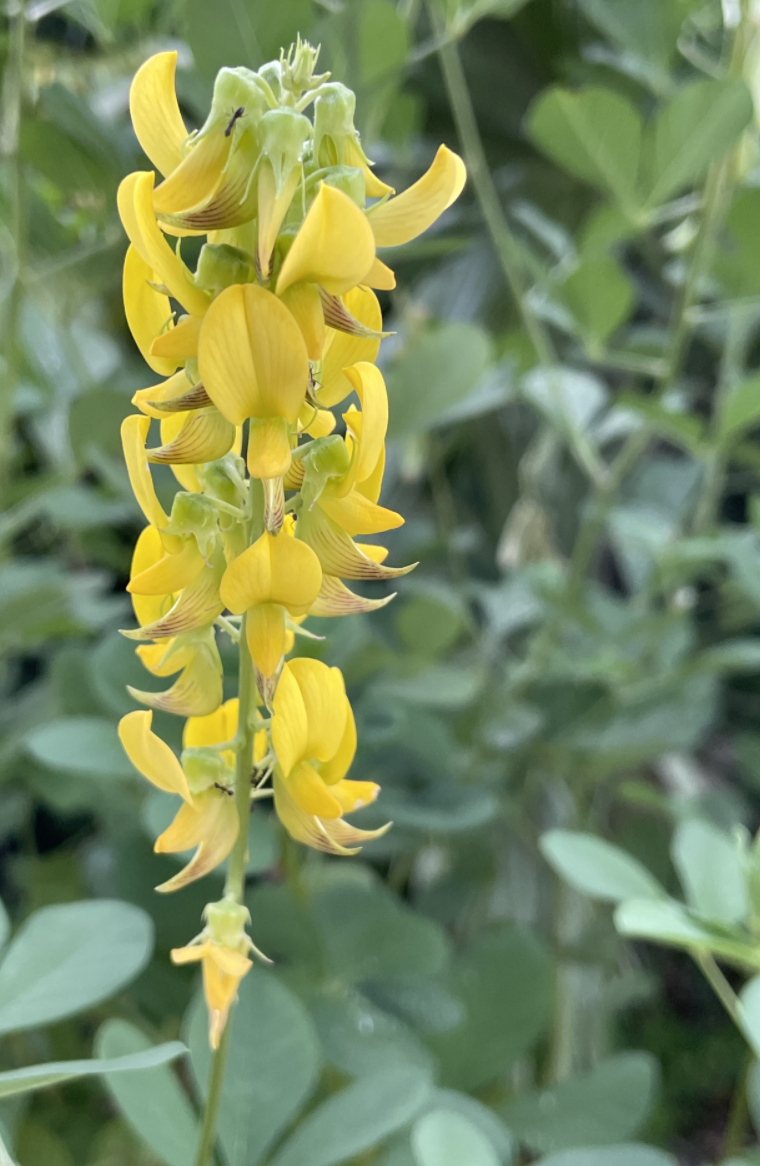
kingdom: Plantae
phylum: Tracheophyta
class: Magnoliopsida
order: Fabales
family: Fabaceae
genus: Crotalaria
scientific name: Crotalaria pallida
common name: Smooth rattlebox
